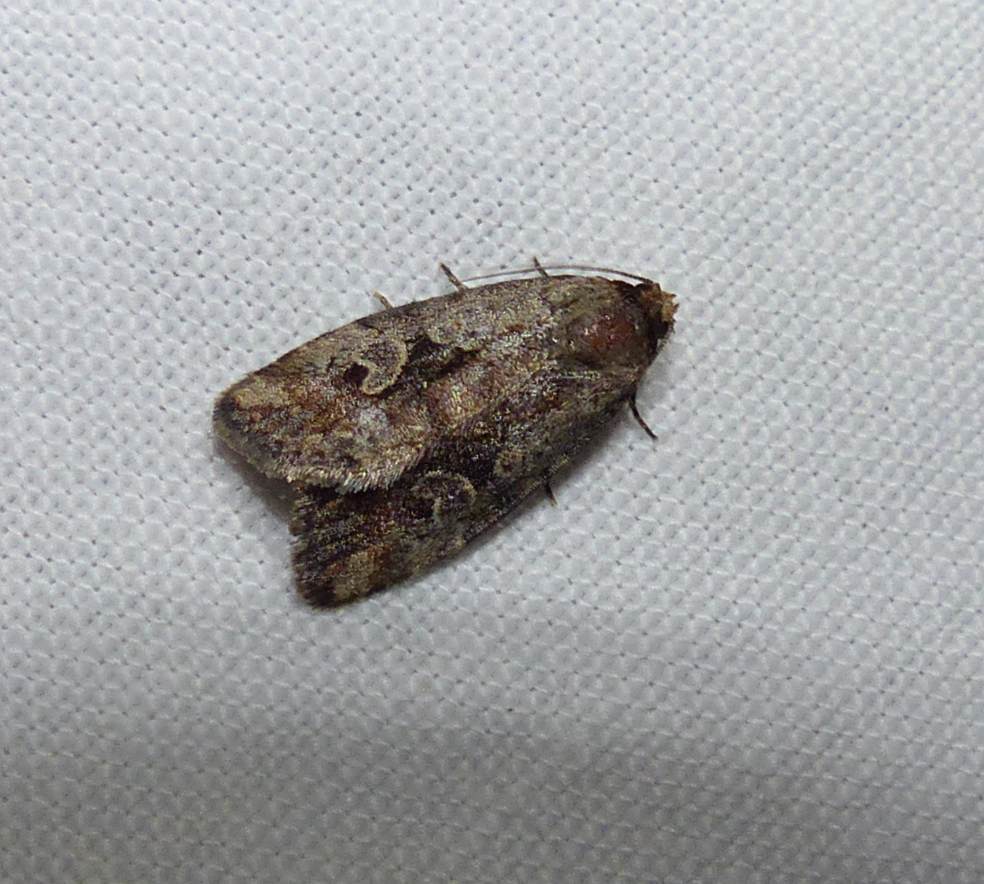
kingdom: Animalia
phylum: Arthropoda
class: Insecta
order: Lepidoptera
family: Noctuidae
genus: Elaphria
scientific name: Elaphria alapallida
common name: Pale-winged midget
